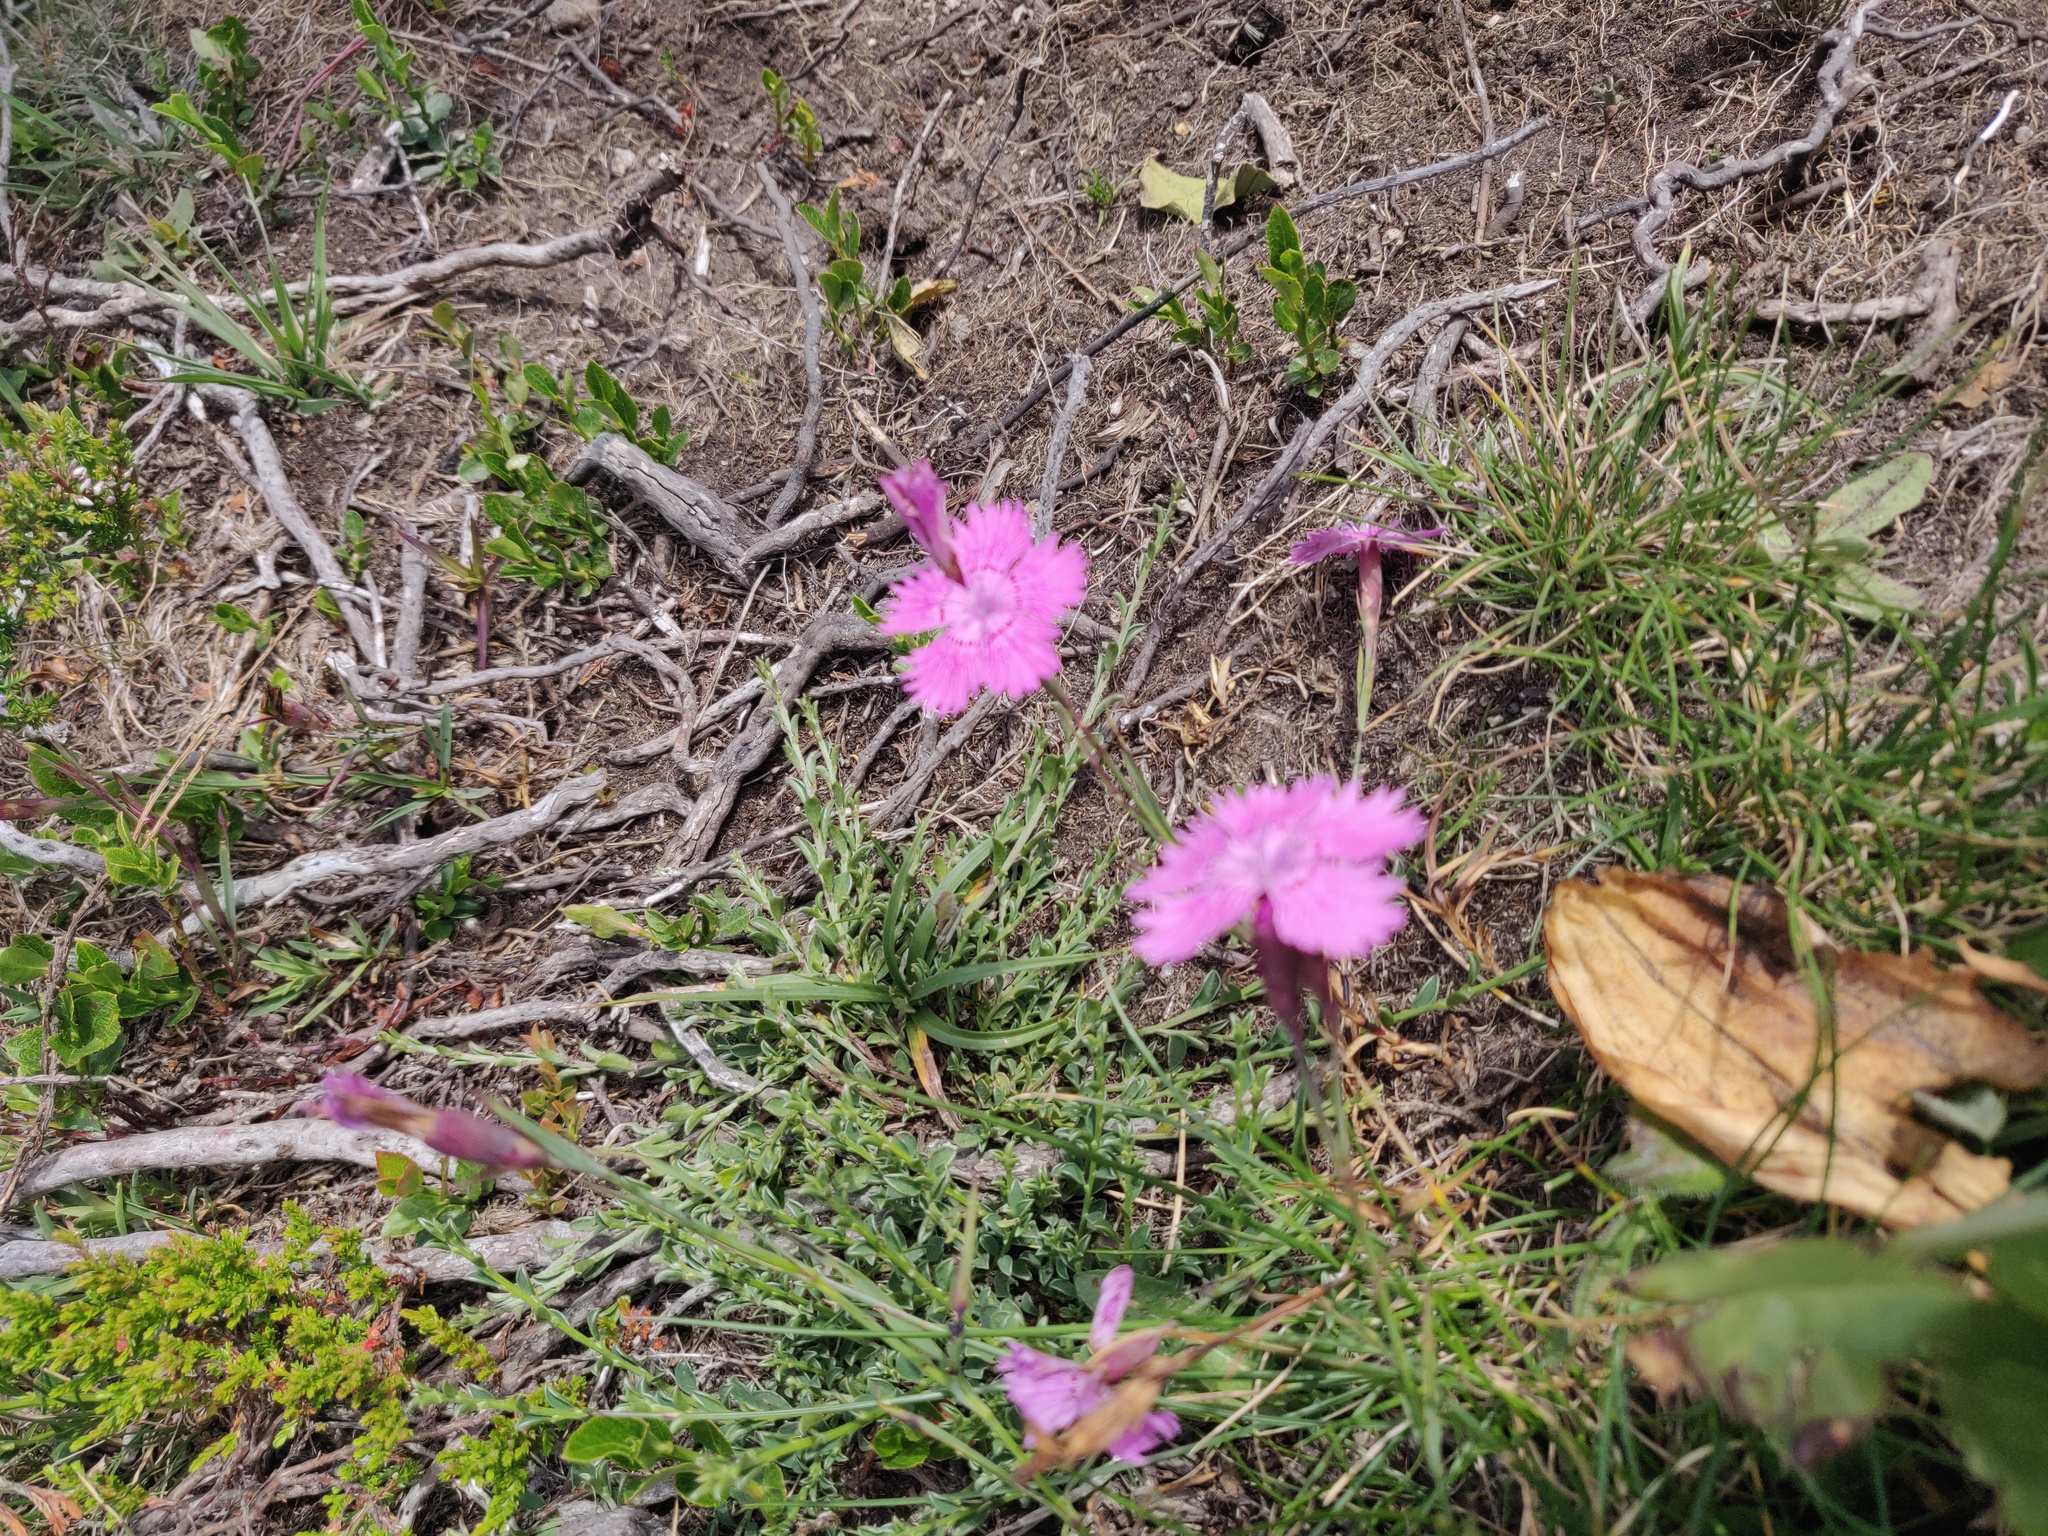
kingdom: Plantae
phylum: Tracheophyta
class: Magnoliopsida
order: Caryophyllales
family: Caryophyllaceae
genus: Dianthus
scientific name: Dianthus seguieri
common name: Ragged pink
